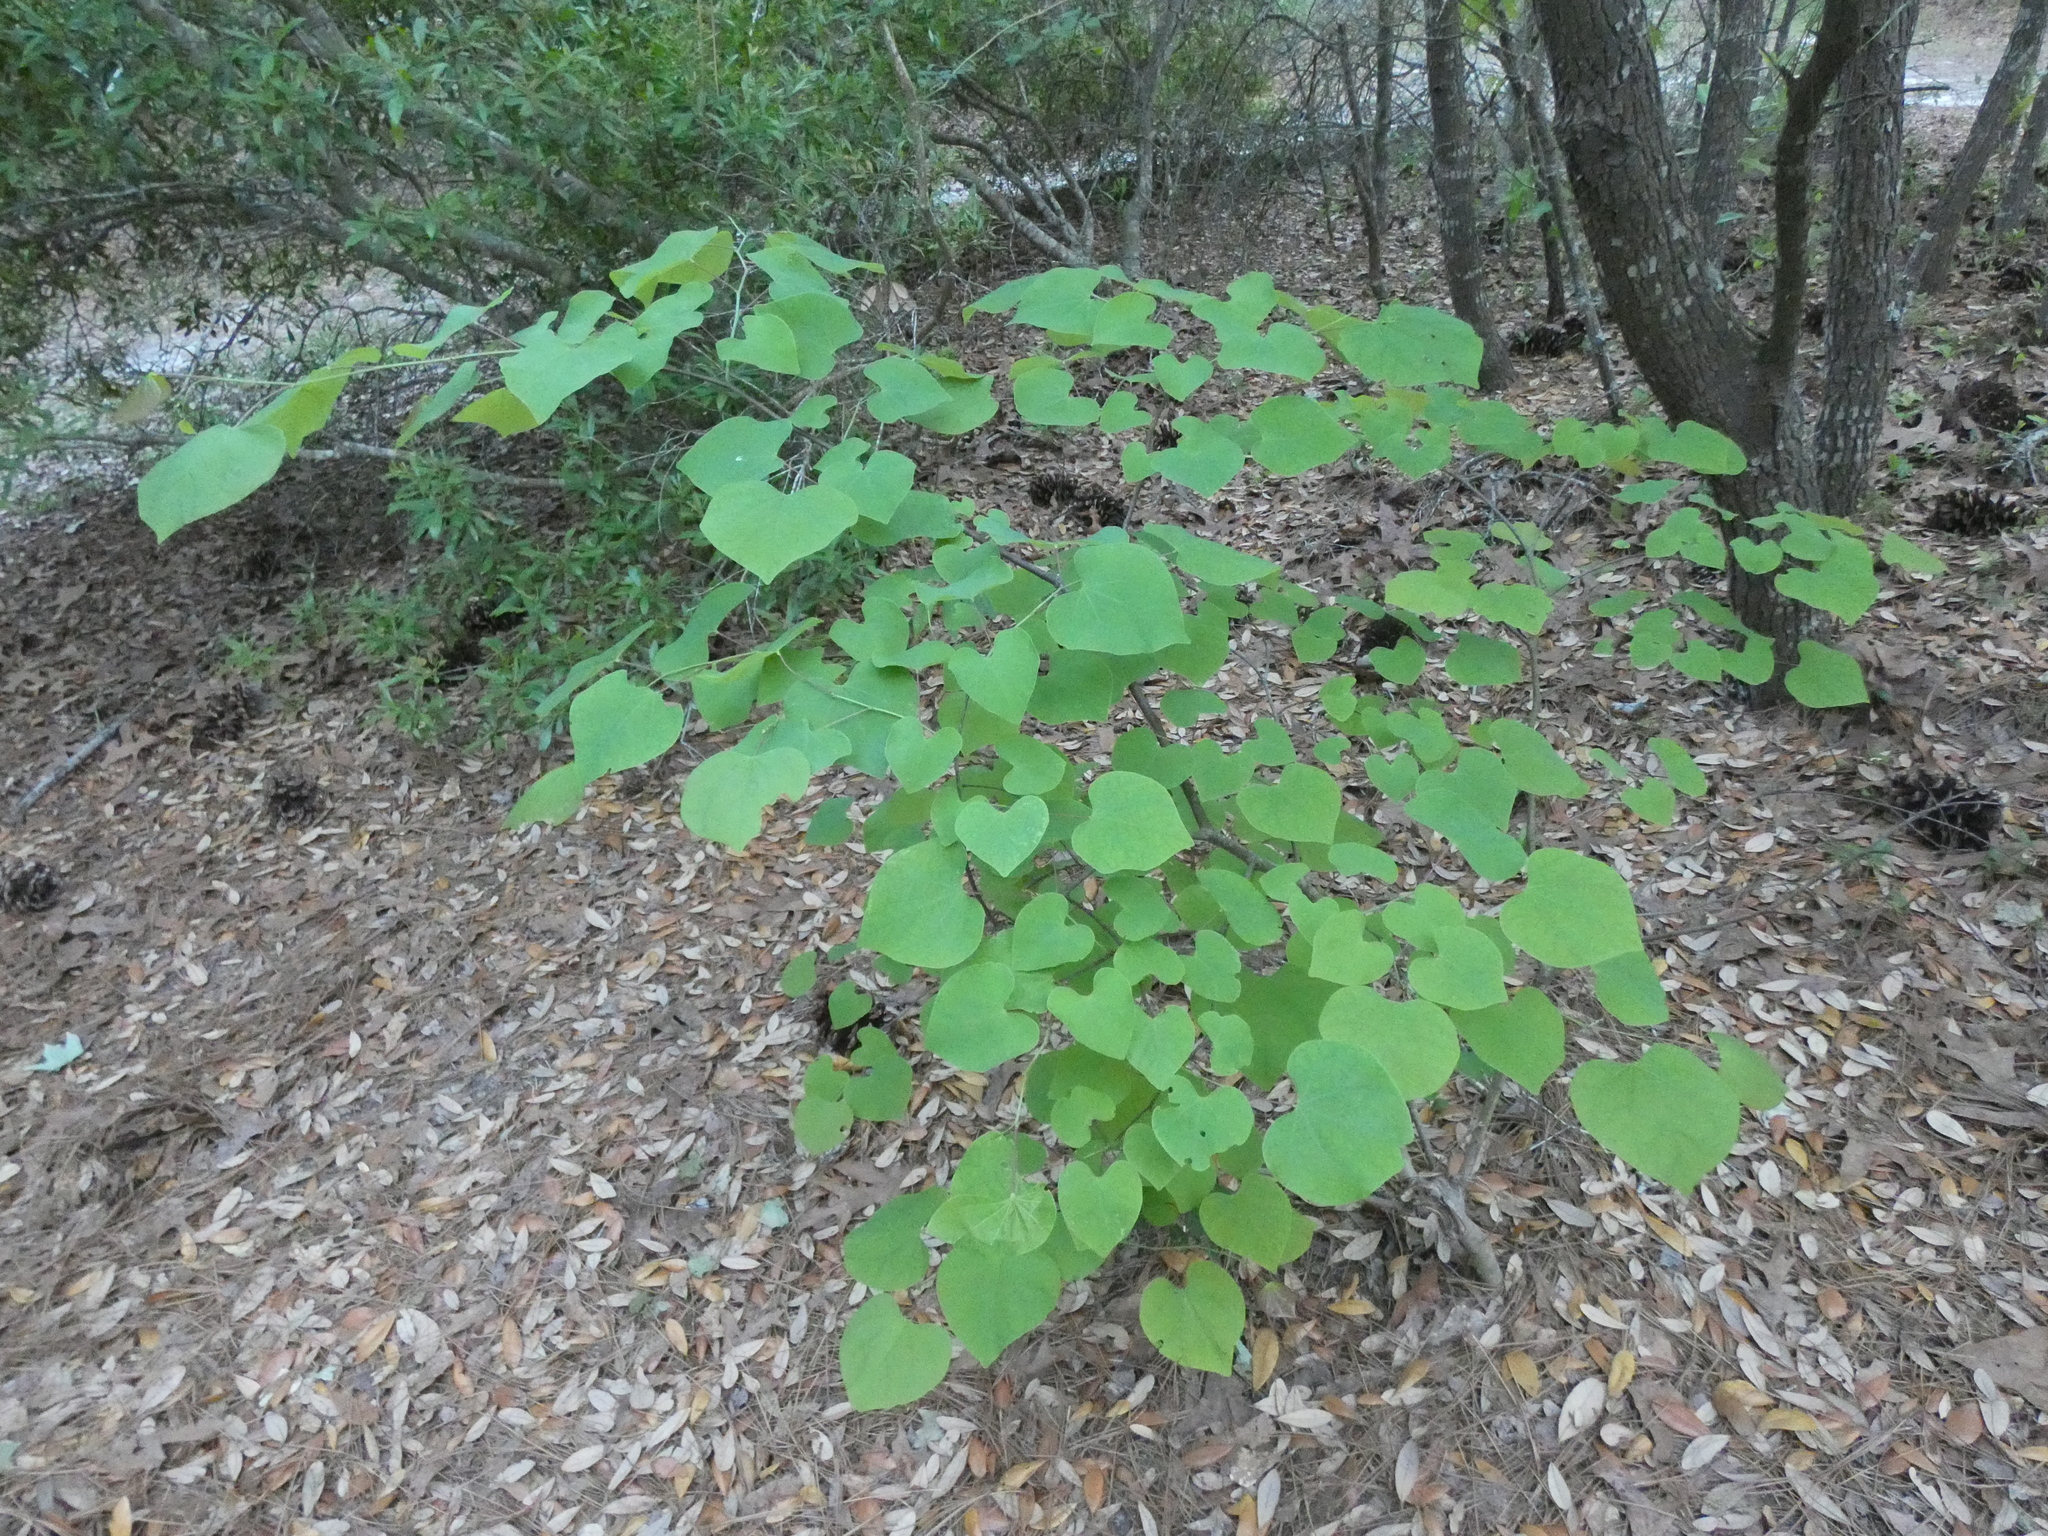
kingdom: Plantae
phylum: Tracheophyta
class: Magnoliopsida
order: Fabales
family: Fabaceae
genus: Cercis
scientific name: Cercis canadensis
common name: Eastern redbud
